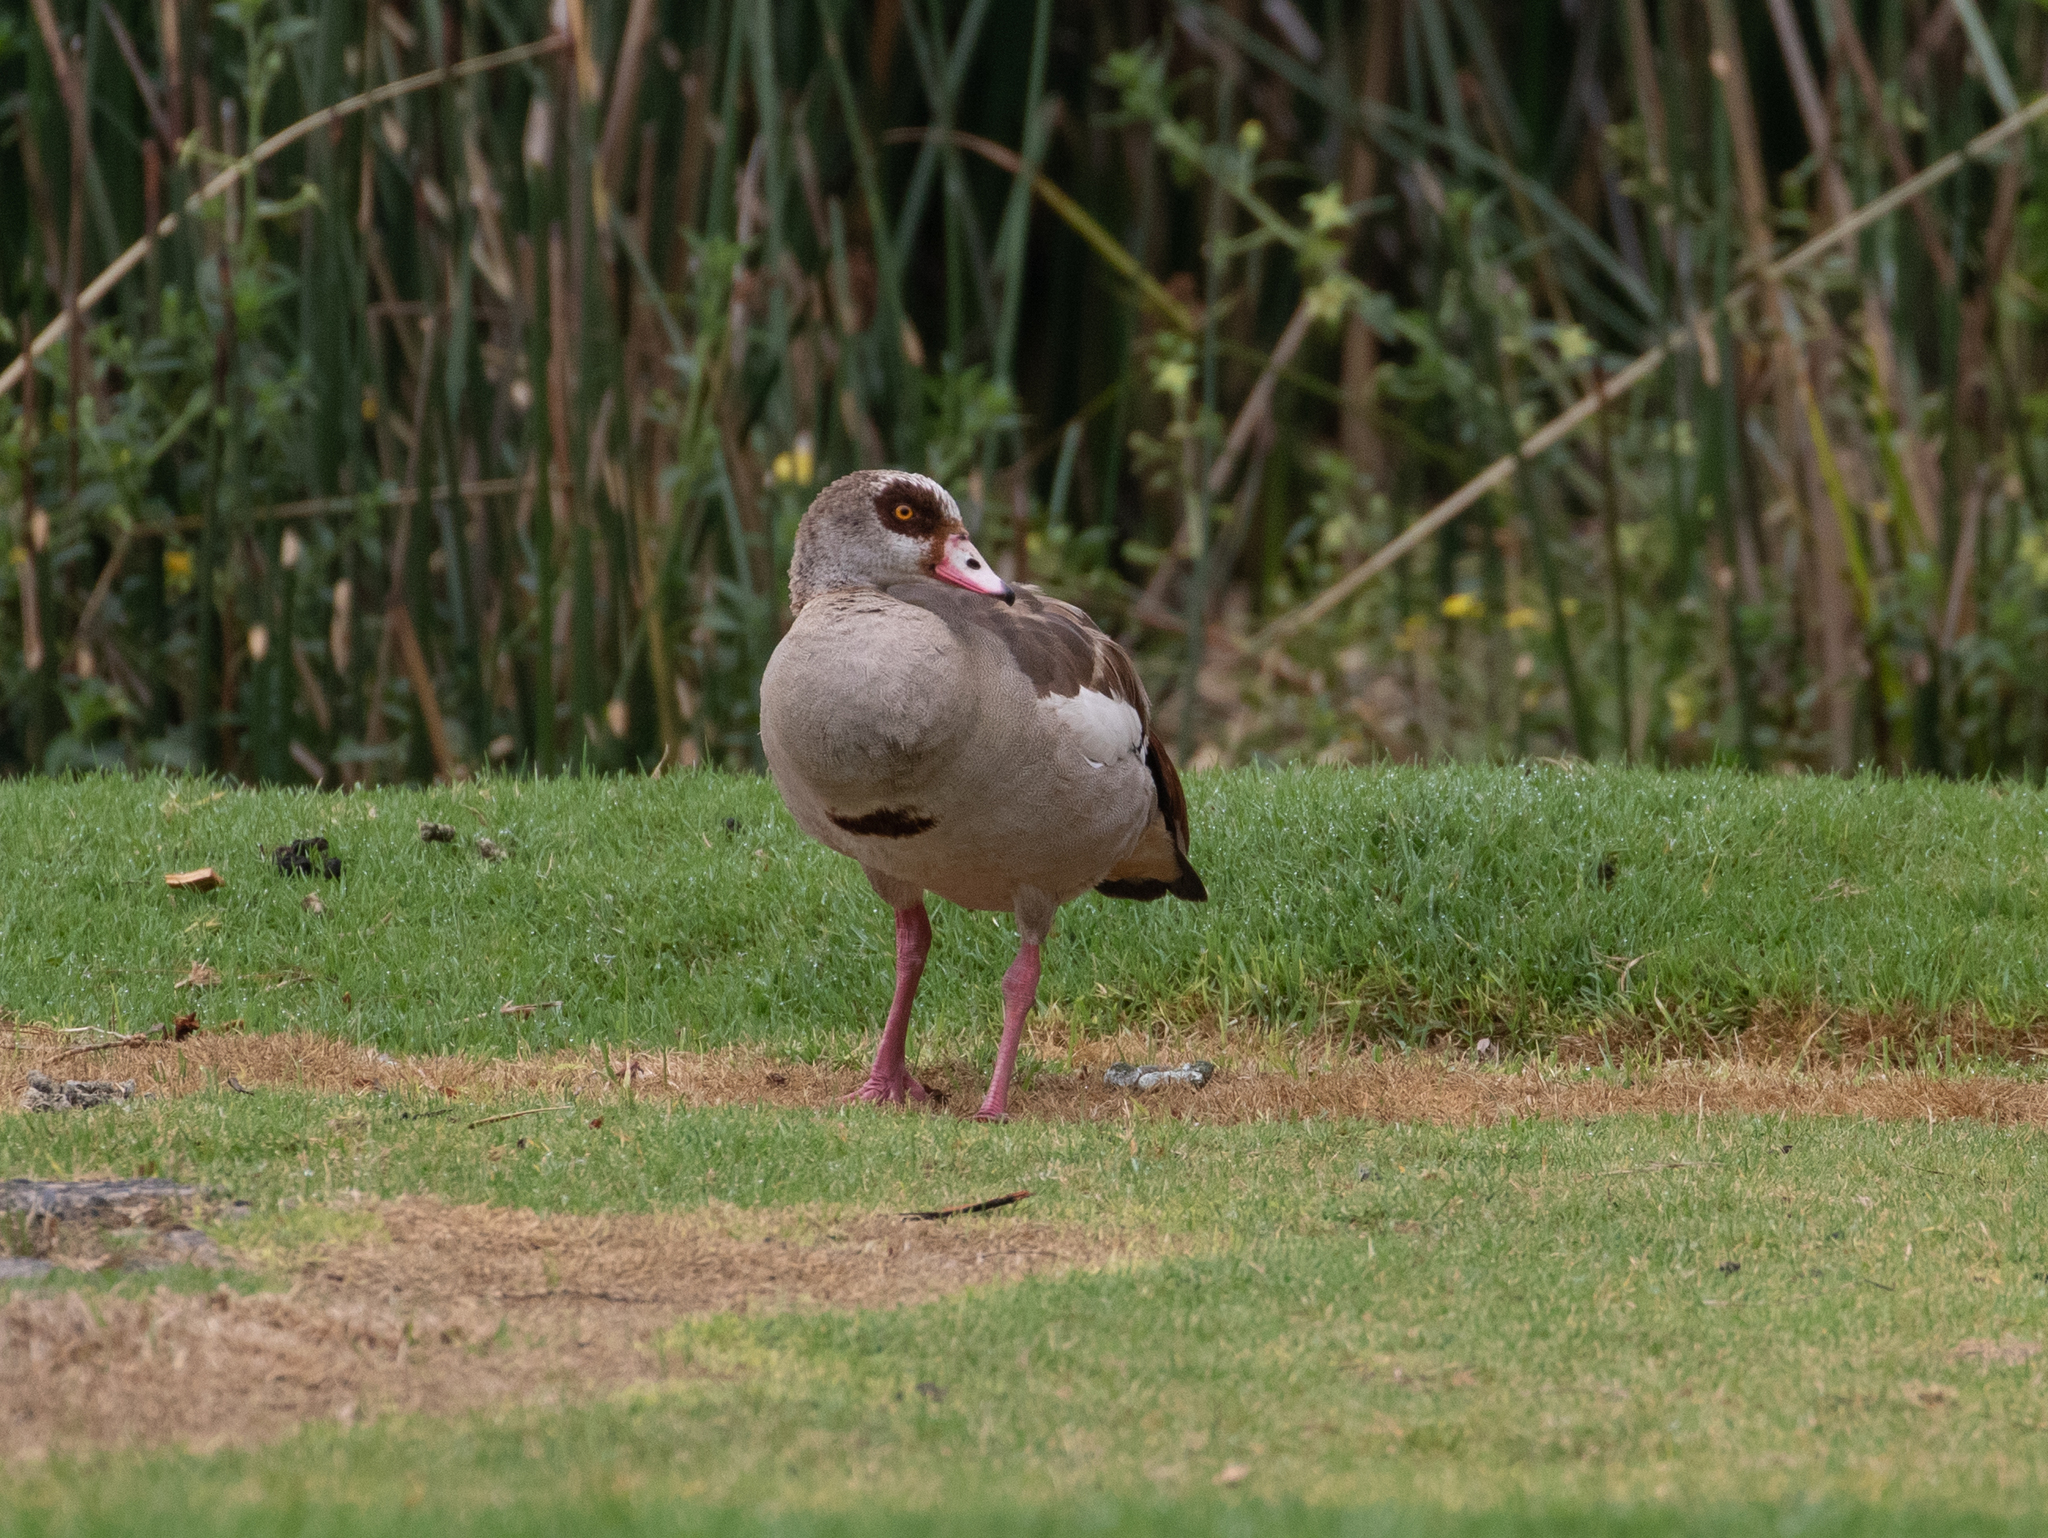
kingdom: Animalia
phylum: Chordata
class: Aves
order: Anseriformes
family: Anatidae
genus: Alopochen
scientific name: Alopochen aegyptiaca
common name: Egyptian goose
